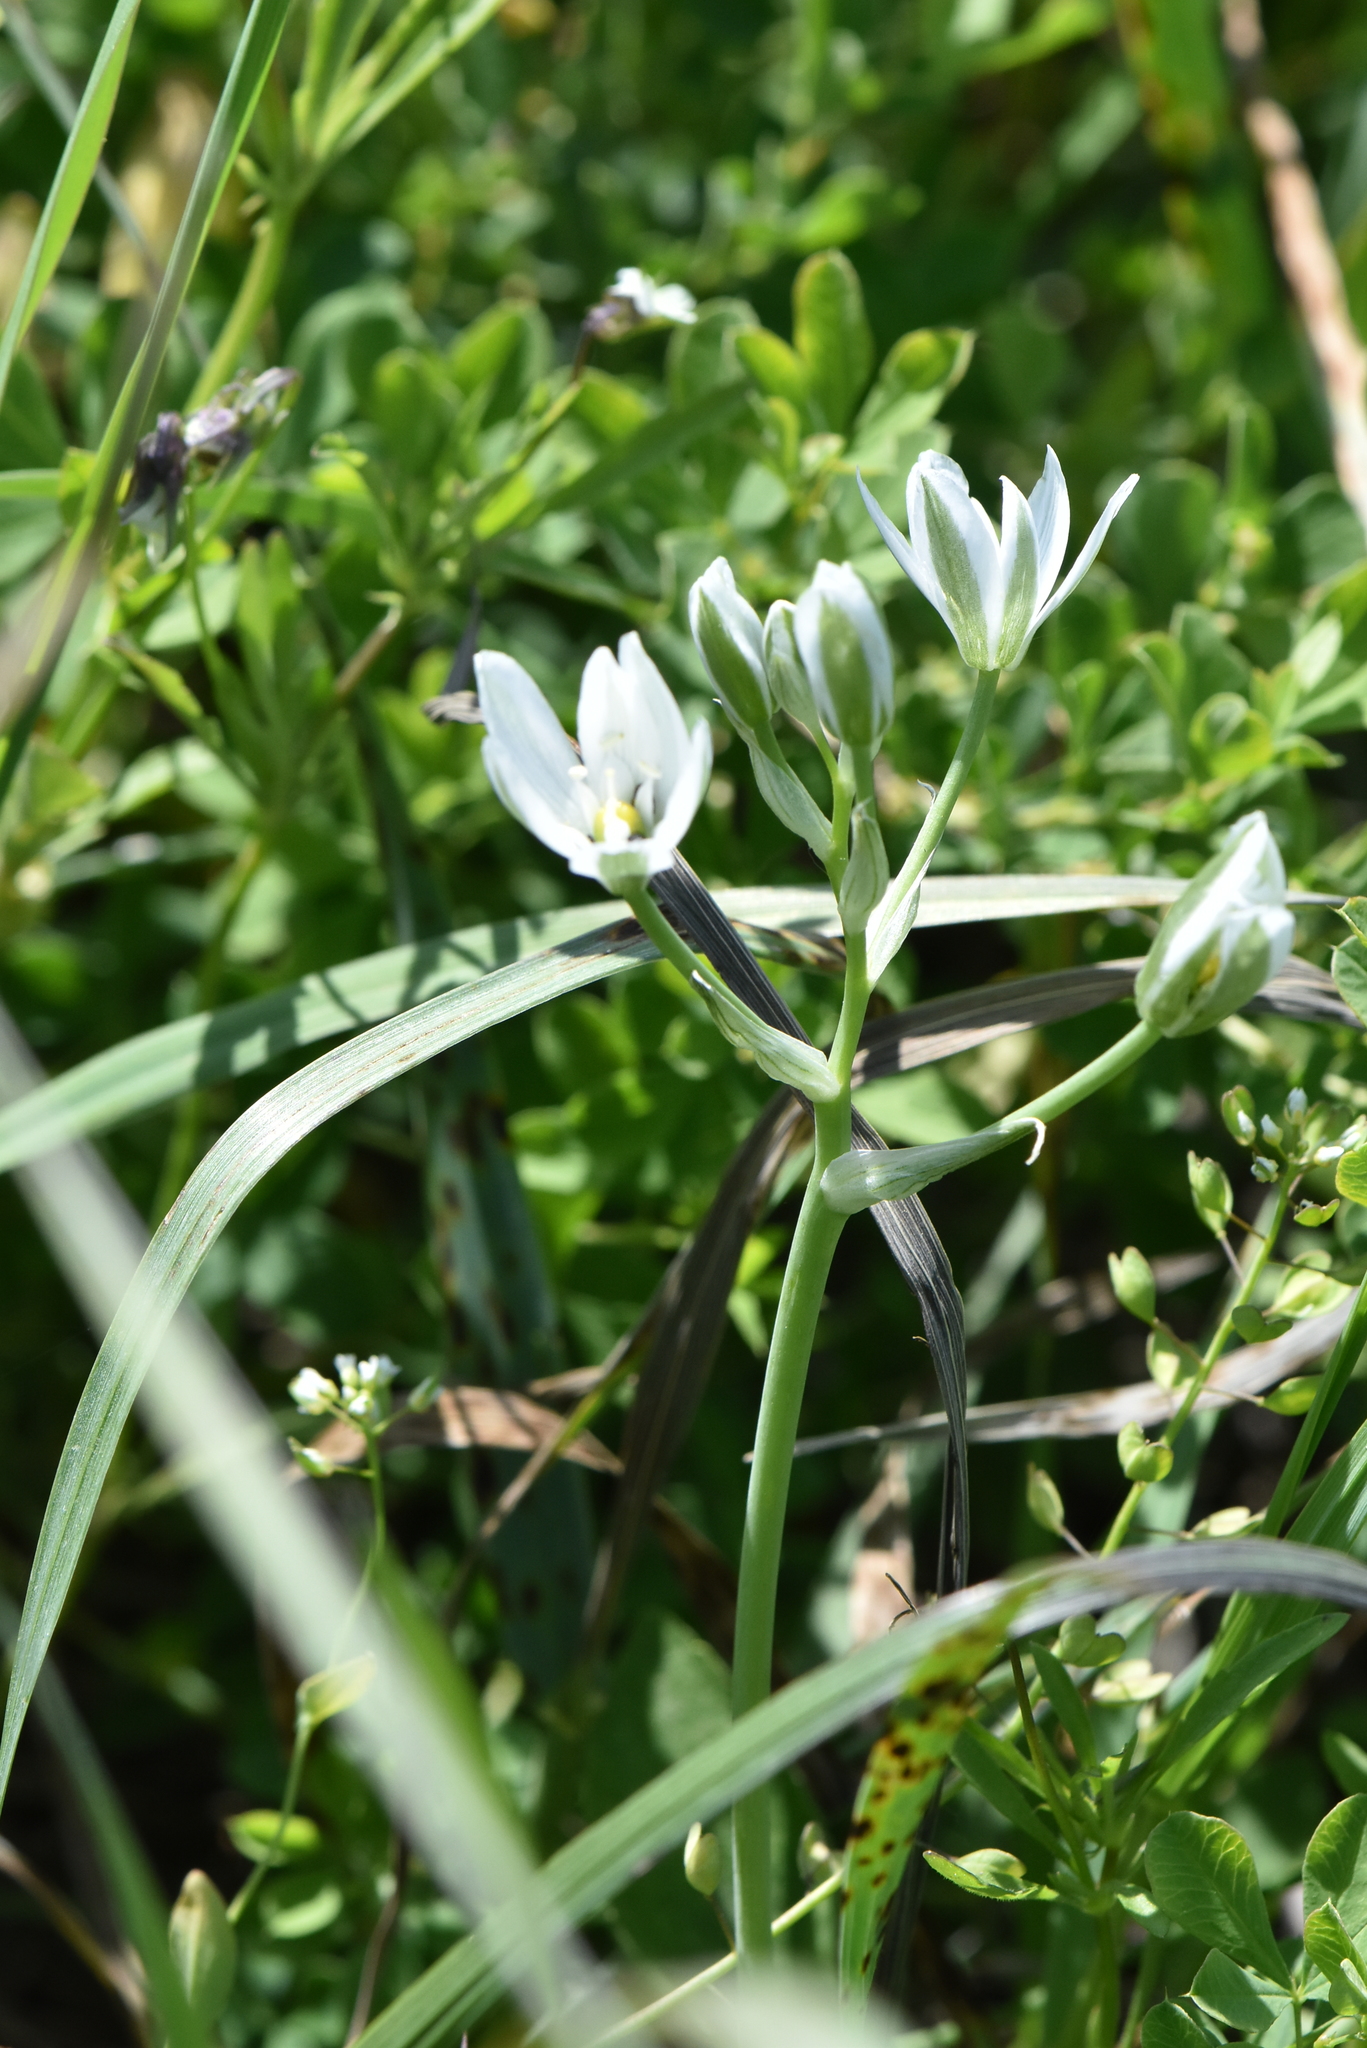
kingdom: Plantae
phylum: Tracheophyta
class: Liliopsida
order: Asparagales
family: Asparagaceae
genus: Ornithogalum
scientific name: Ornithogalum orthophyllum
